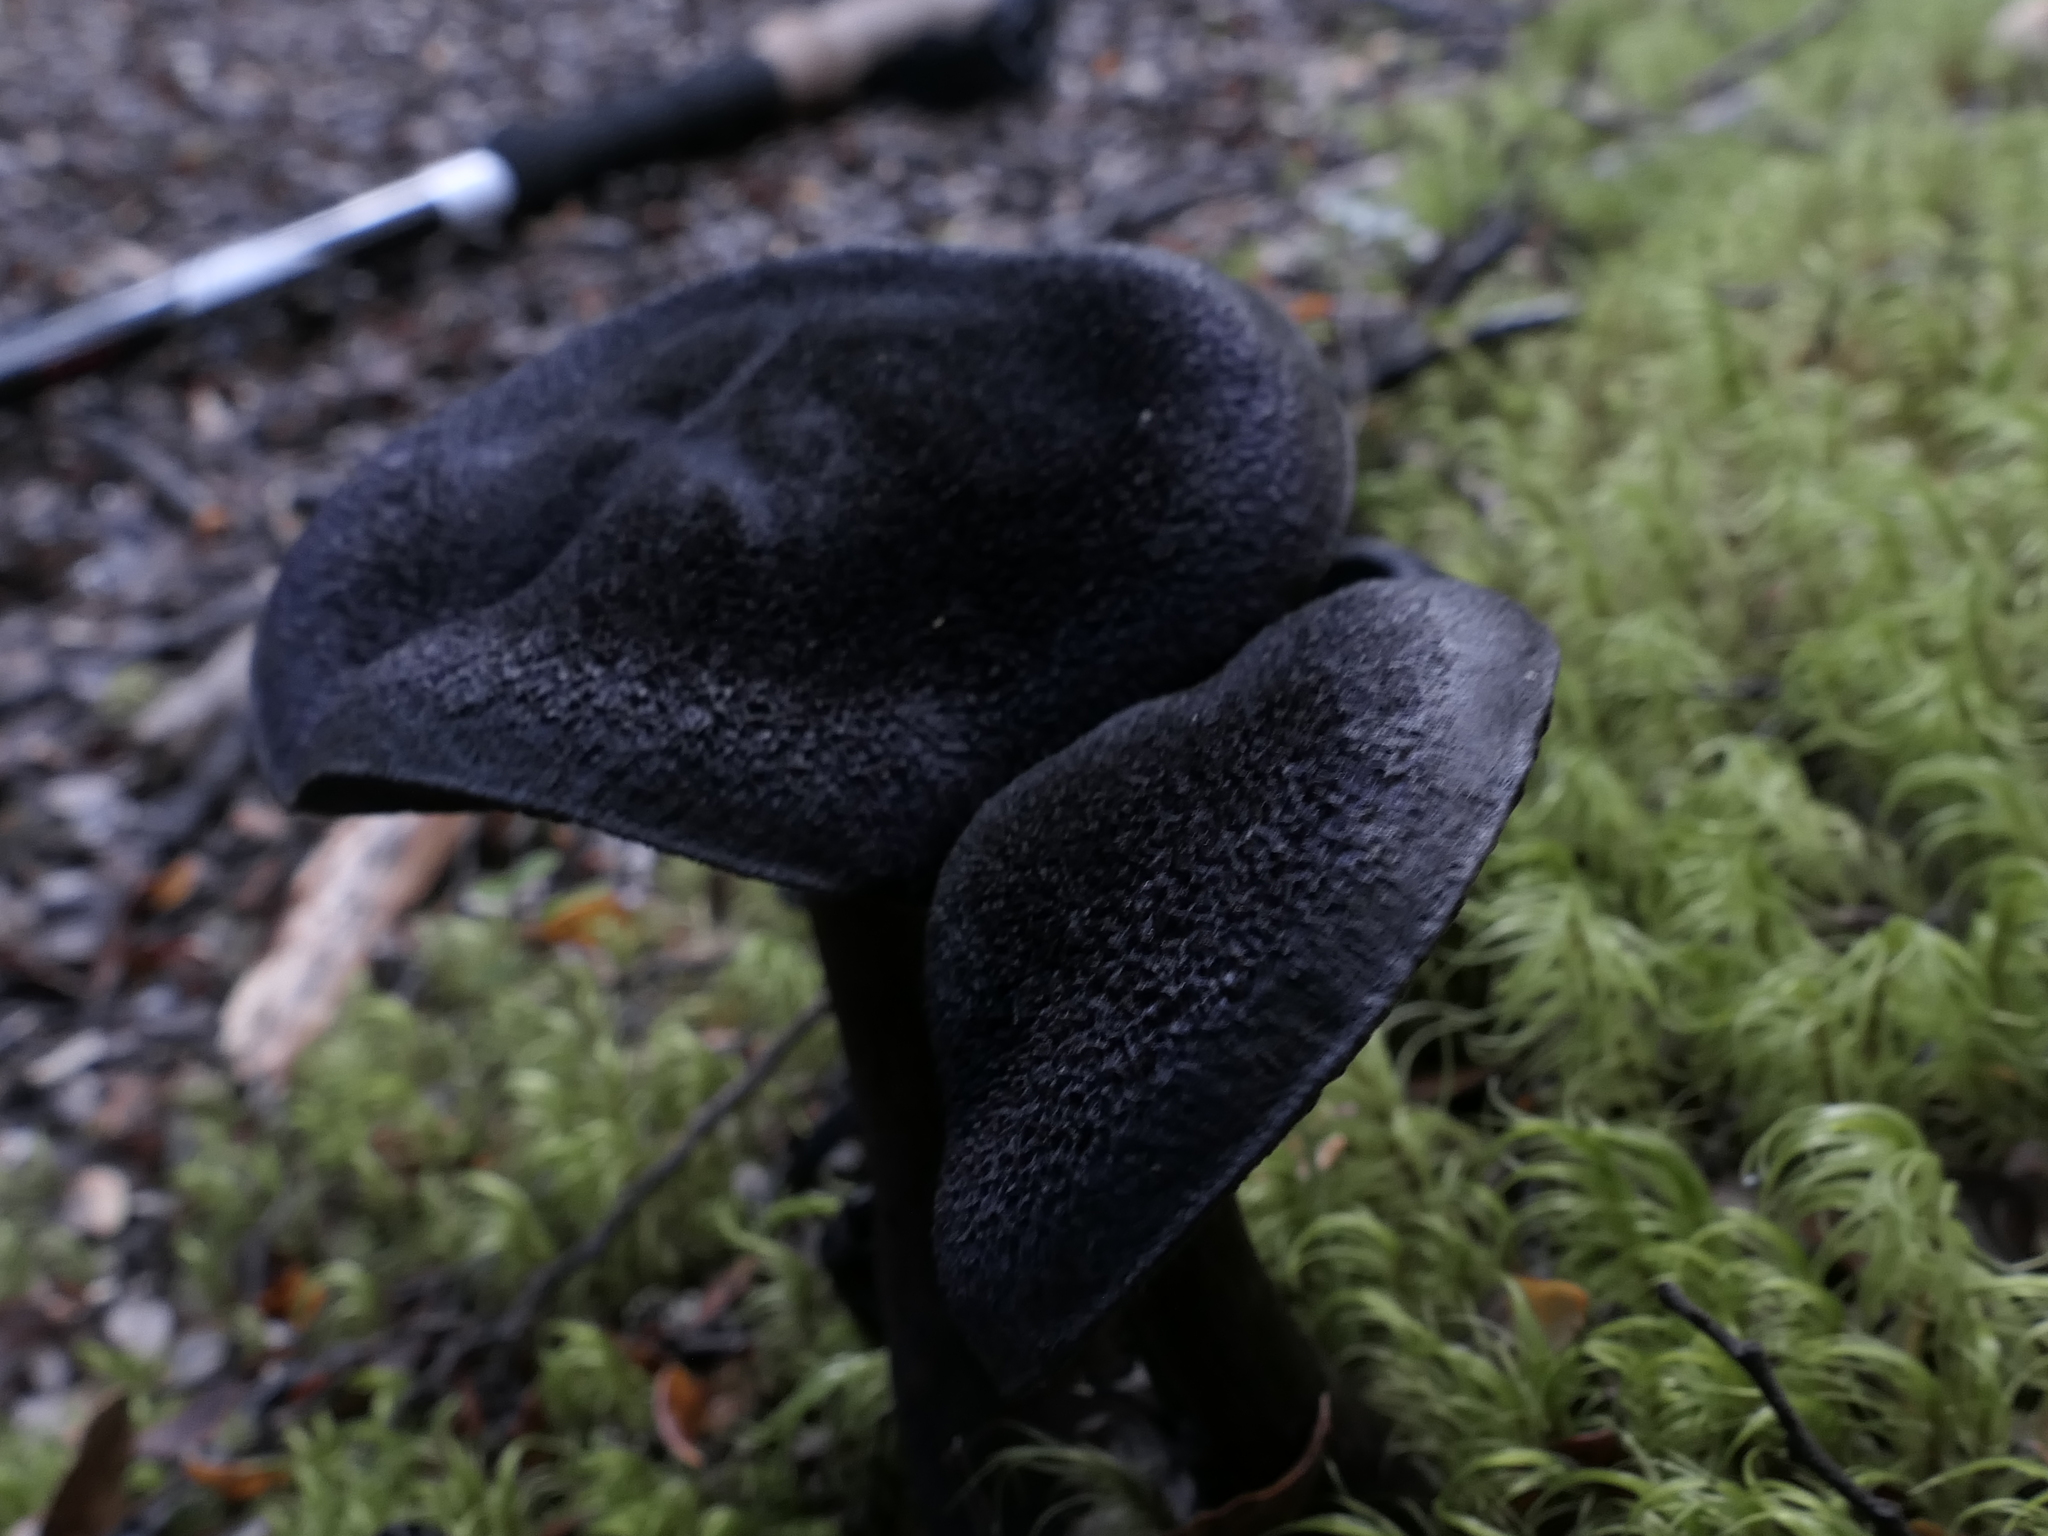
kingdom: Fungi
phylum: Basidiomycota
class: Agaricomycetes
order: Agaricales
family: Cortinariaceae
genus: Cortinarius
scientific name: Cortinarius carneipallidus
